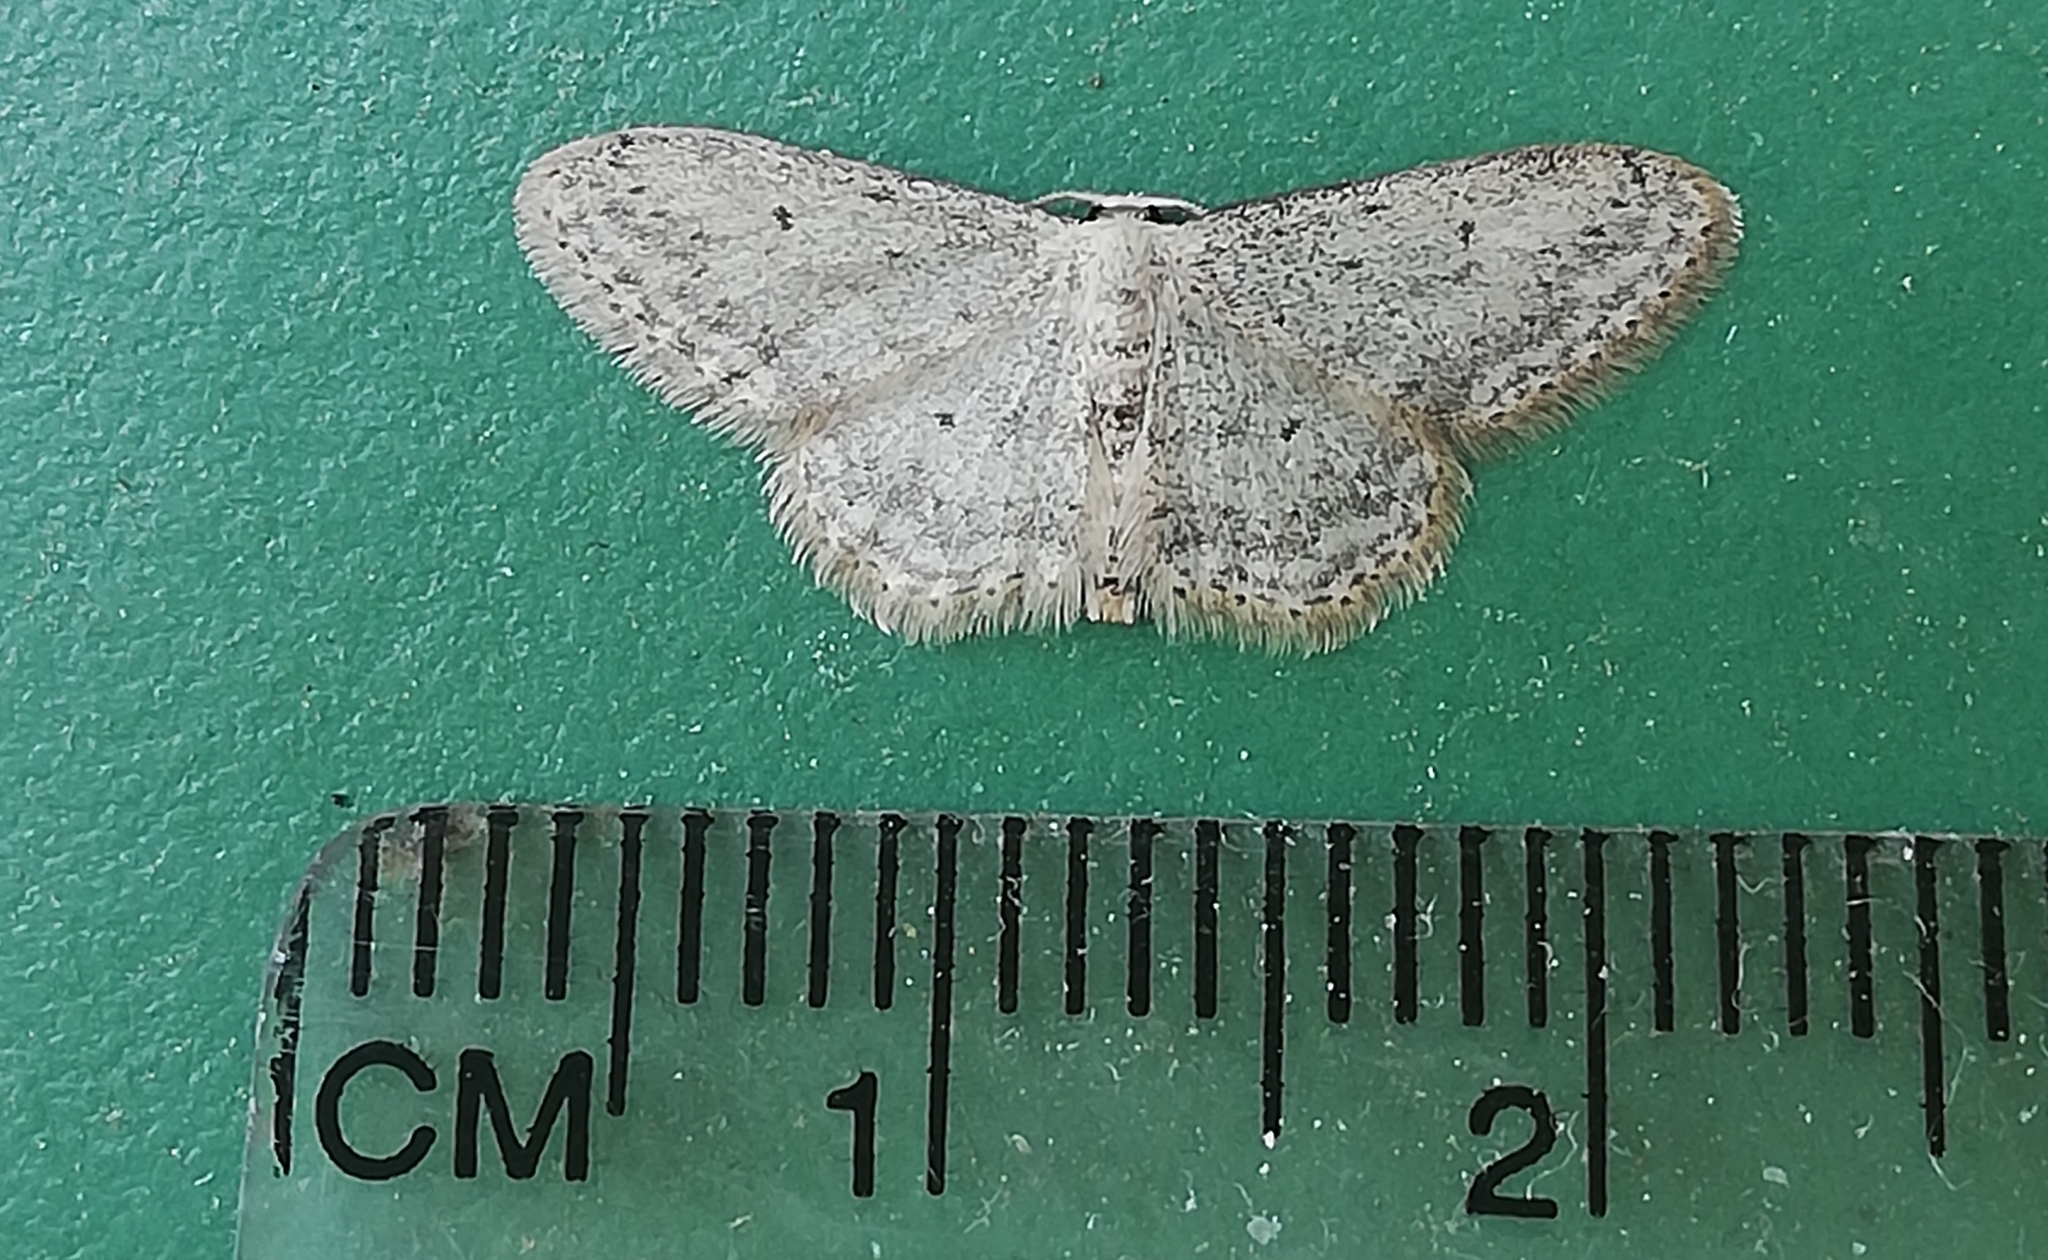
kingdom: Animalia
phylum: Arthropoda
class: Insecta
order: Lepidoptera
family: Geometridae
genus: Idaea
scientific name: Idaea seriata
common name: Small dusty wave
